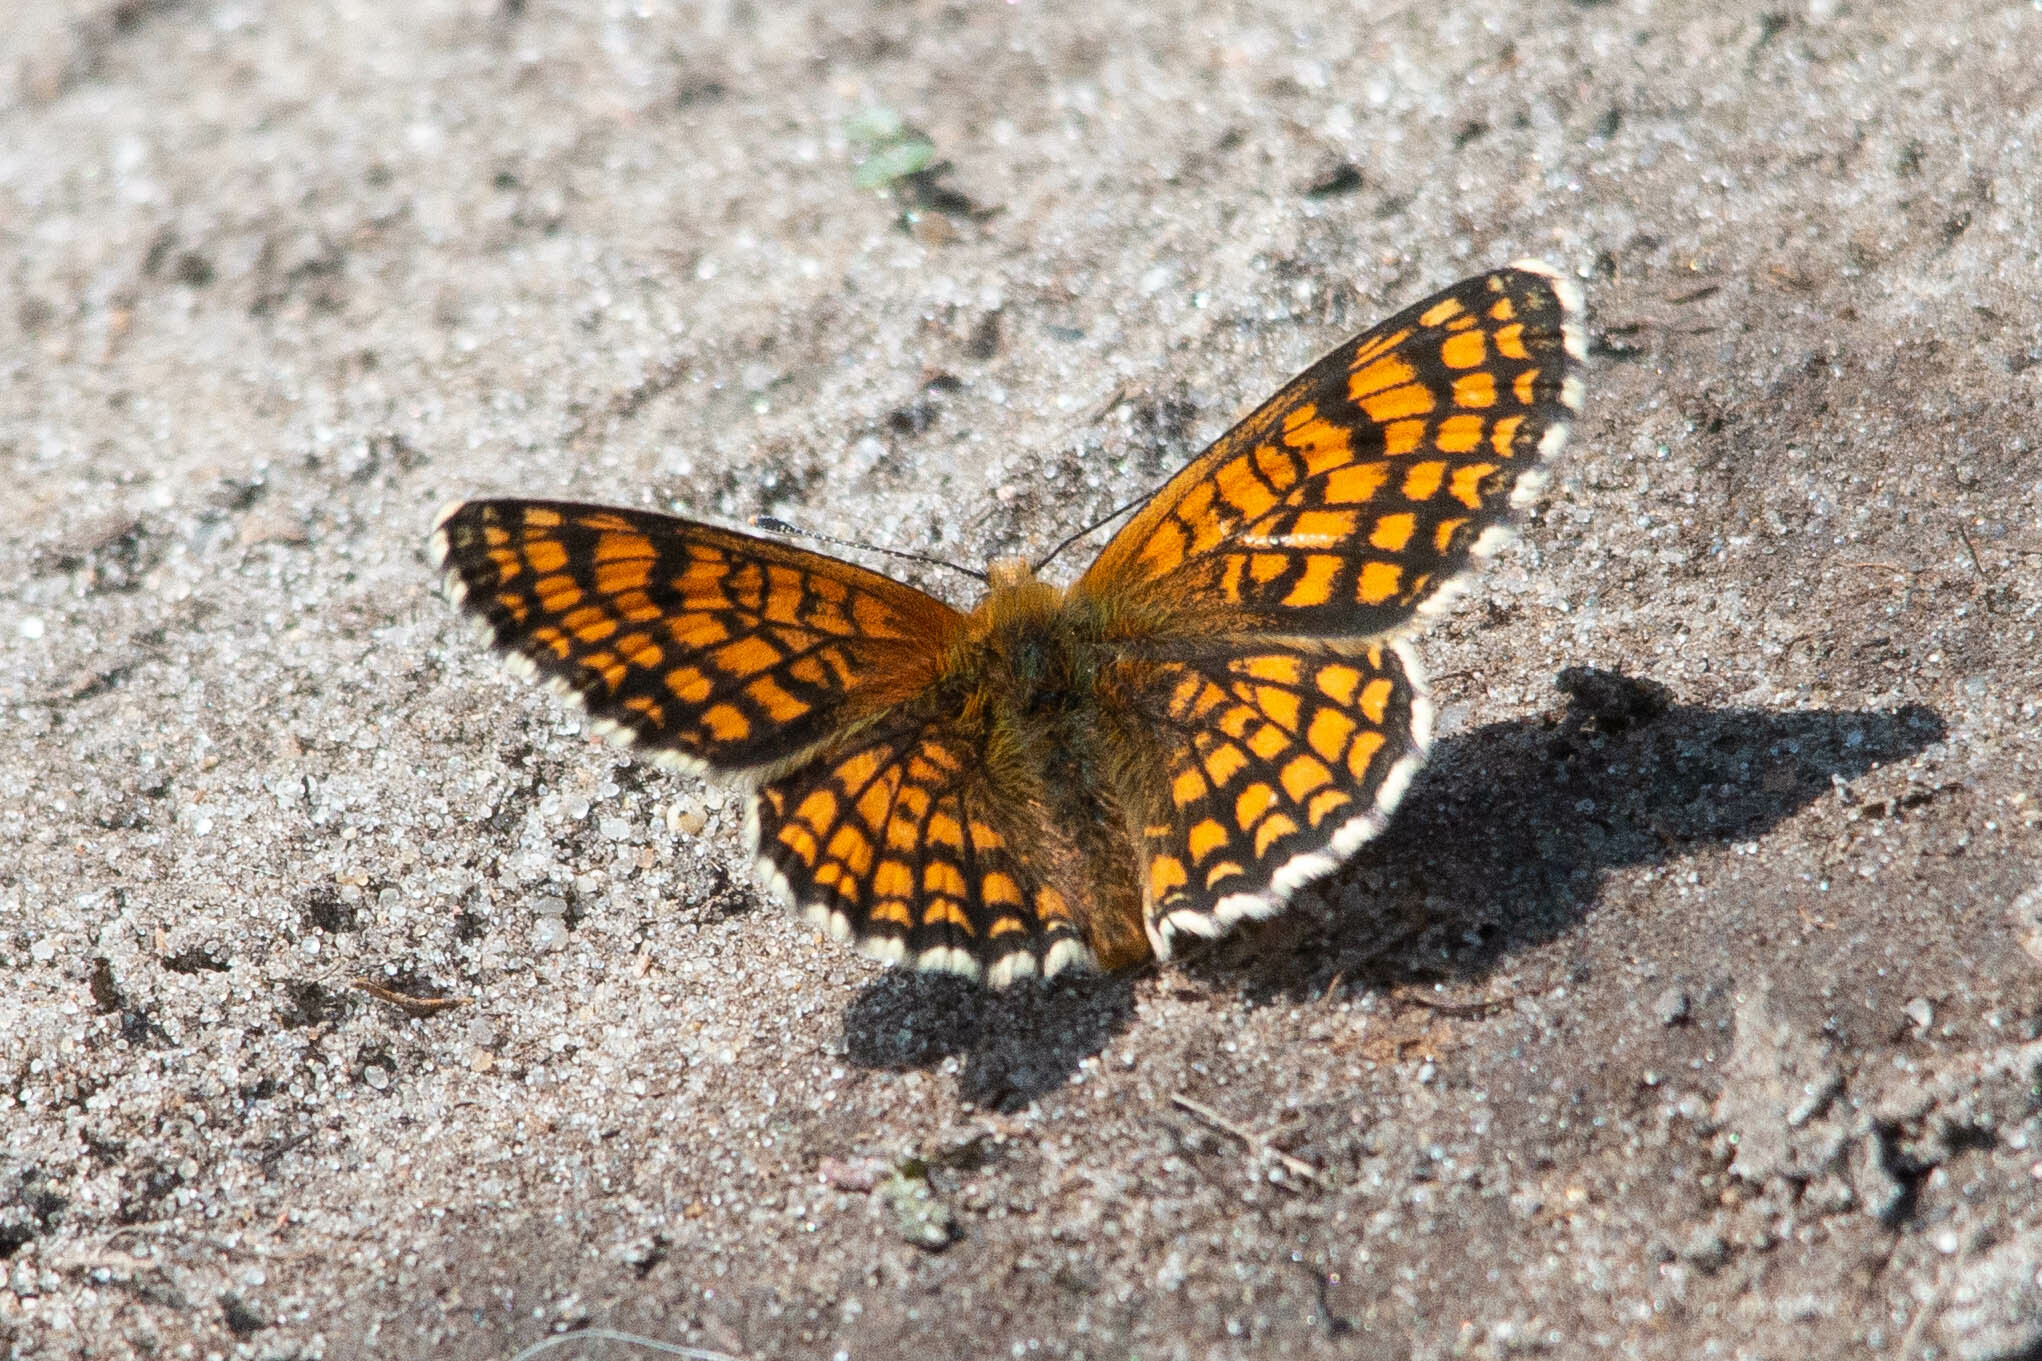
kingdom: Animalia
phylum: Arthropoda
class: Insecta
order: Lepidoptera
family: Nymphalidae
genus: Melitaea
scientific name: Melitaea athalia
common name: Heath fritillary
